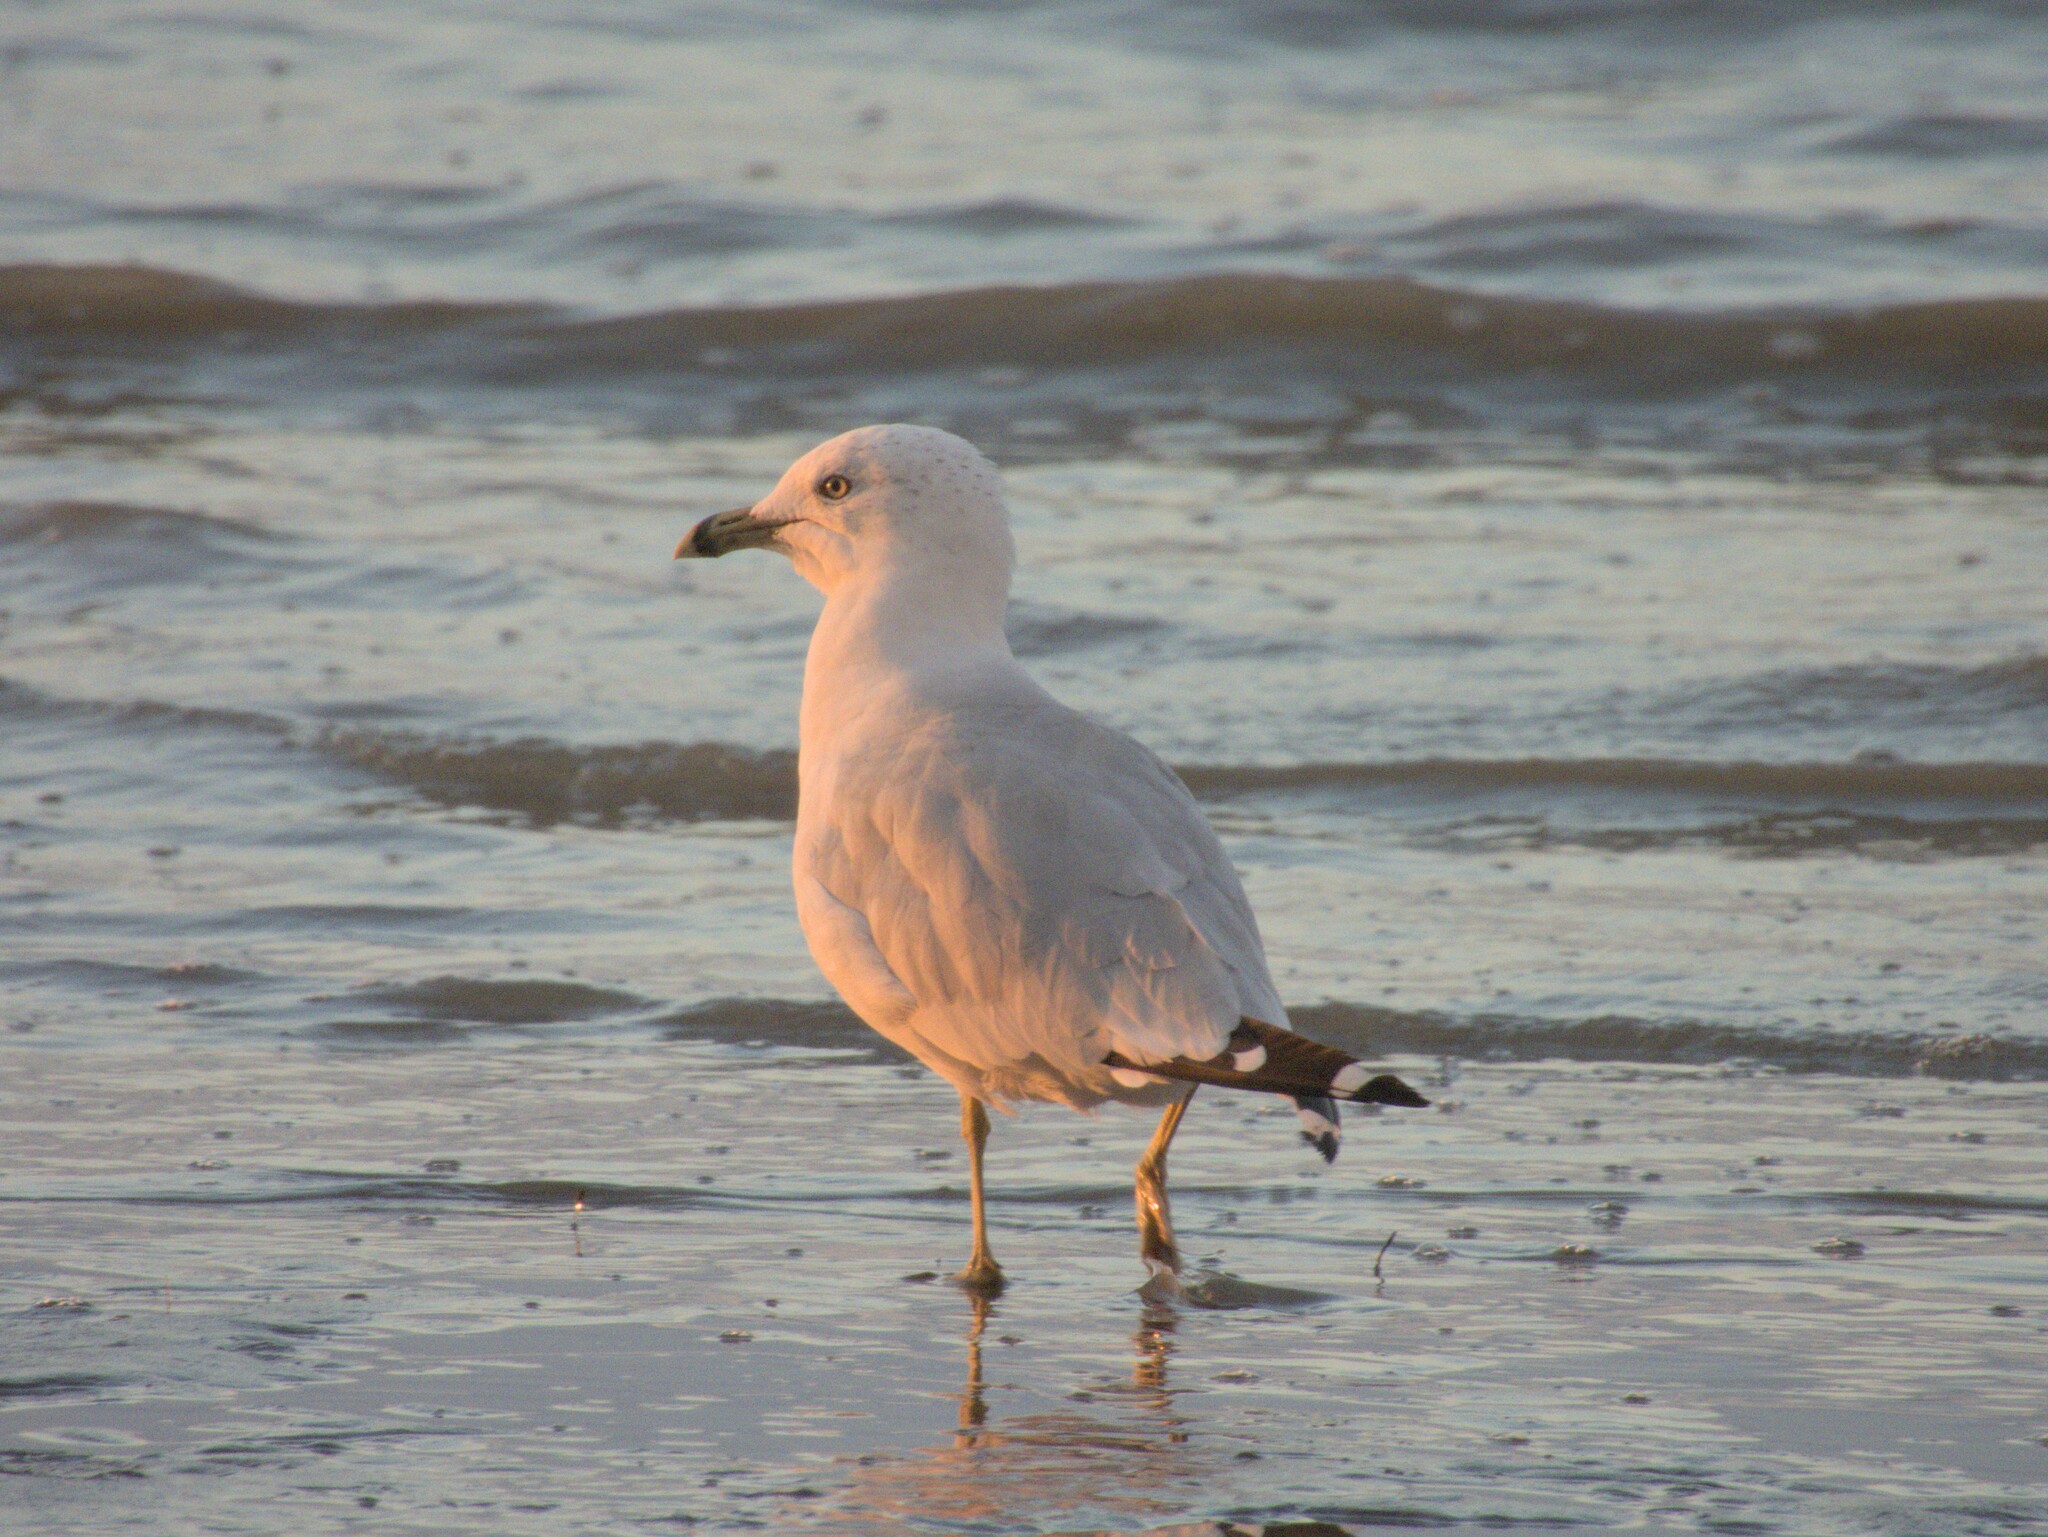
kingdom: Animalia
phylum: Chordata
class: Aves
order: Charadriiformes
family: Laridae
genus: Larus
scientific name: Larus delawarensis
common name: Ring-billed gull
